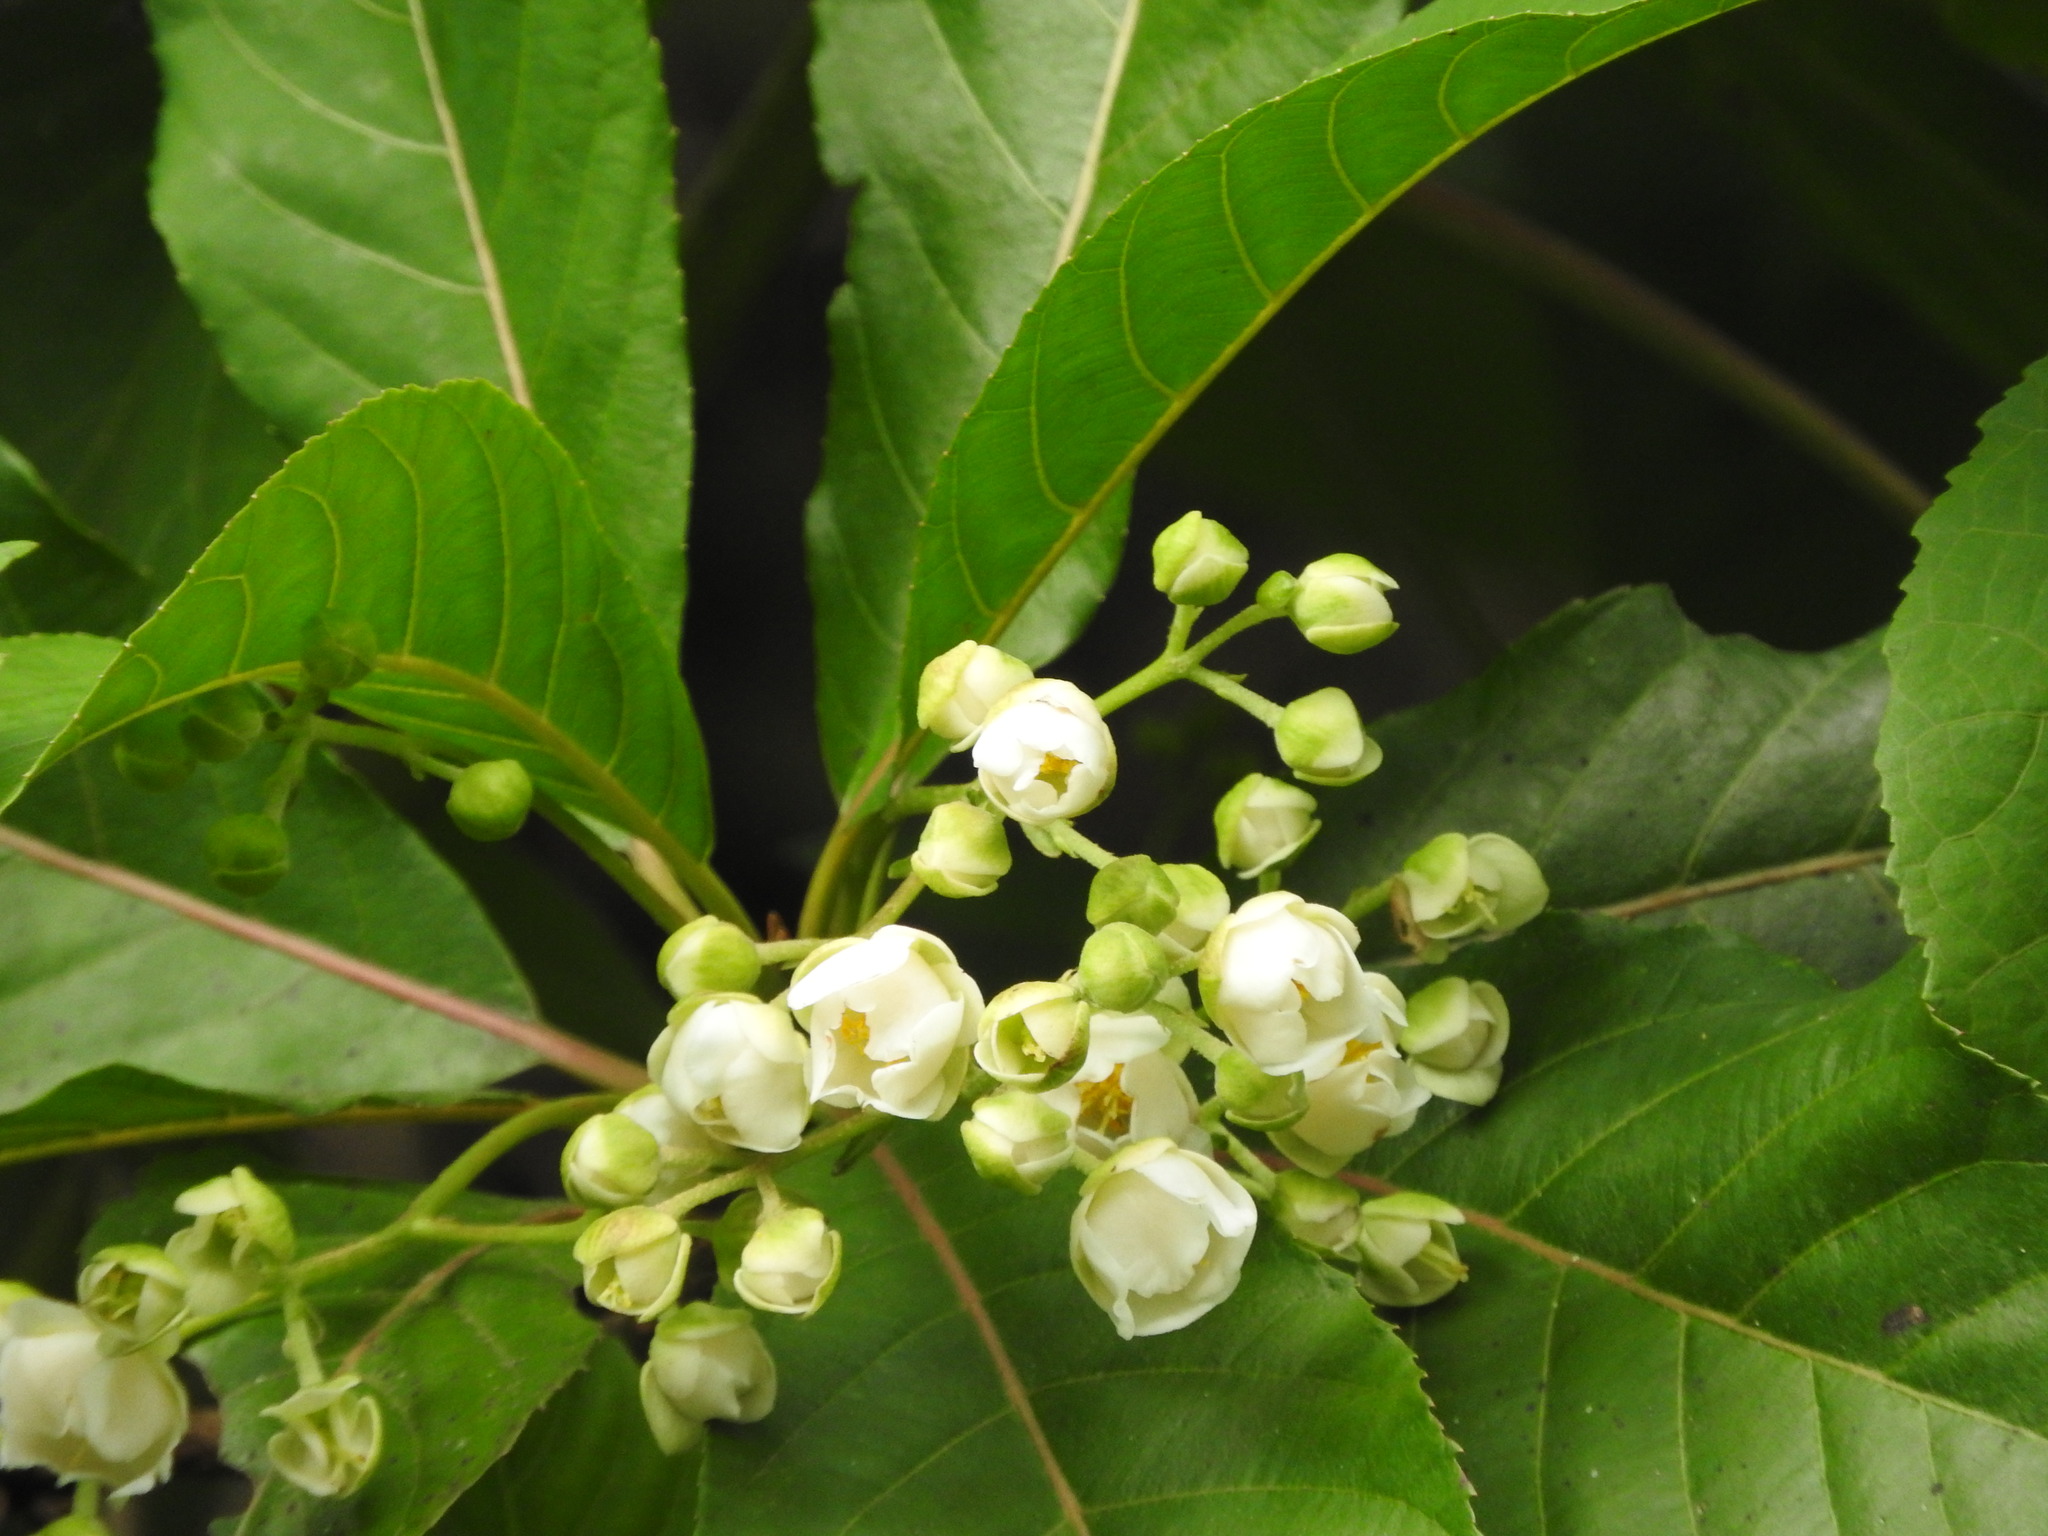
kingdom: Plantae
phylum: Tracheophyta
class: Magnoliopsida
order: Ericales
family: Actinidiaceae
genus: Saurauia
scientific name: Saurauia yasicae
